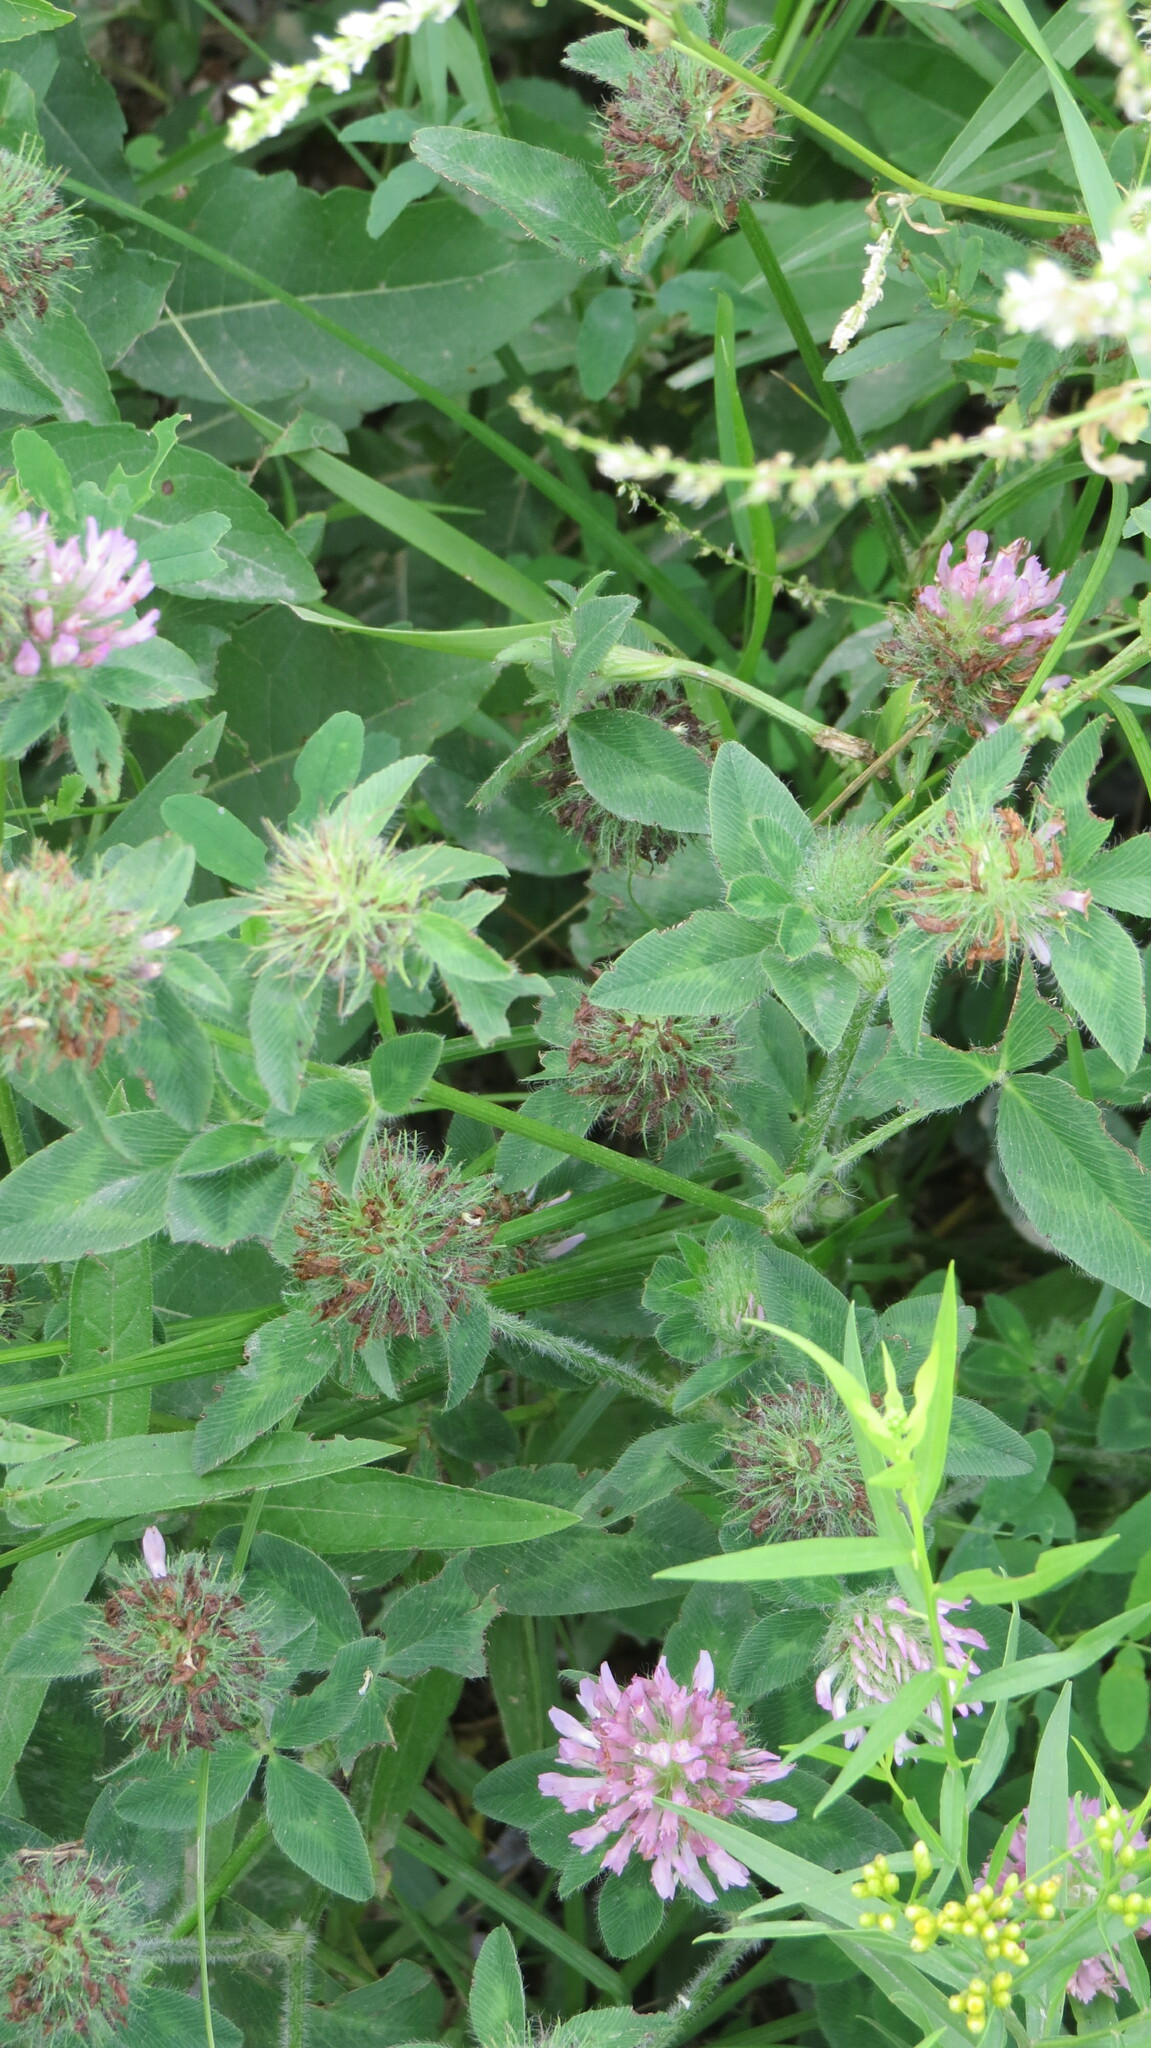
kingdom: Plantae
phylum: Tracheophyta
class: Magnoliopsida
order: Fabales
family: Fabaceae
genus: Trifolium
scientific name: Trifolium pratense
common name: Red clover
